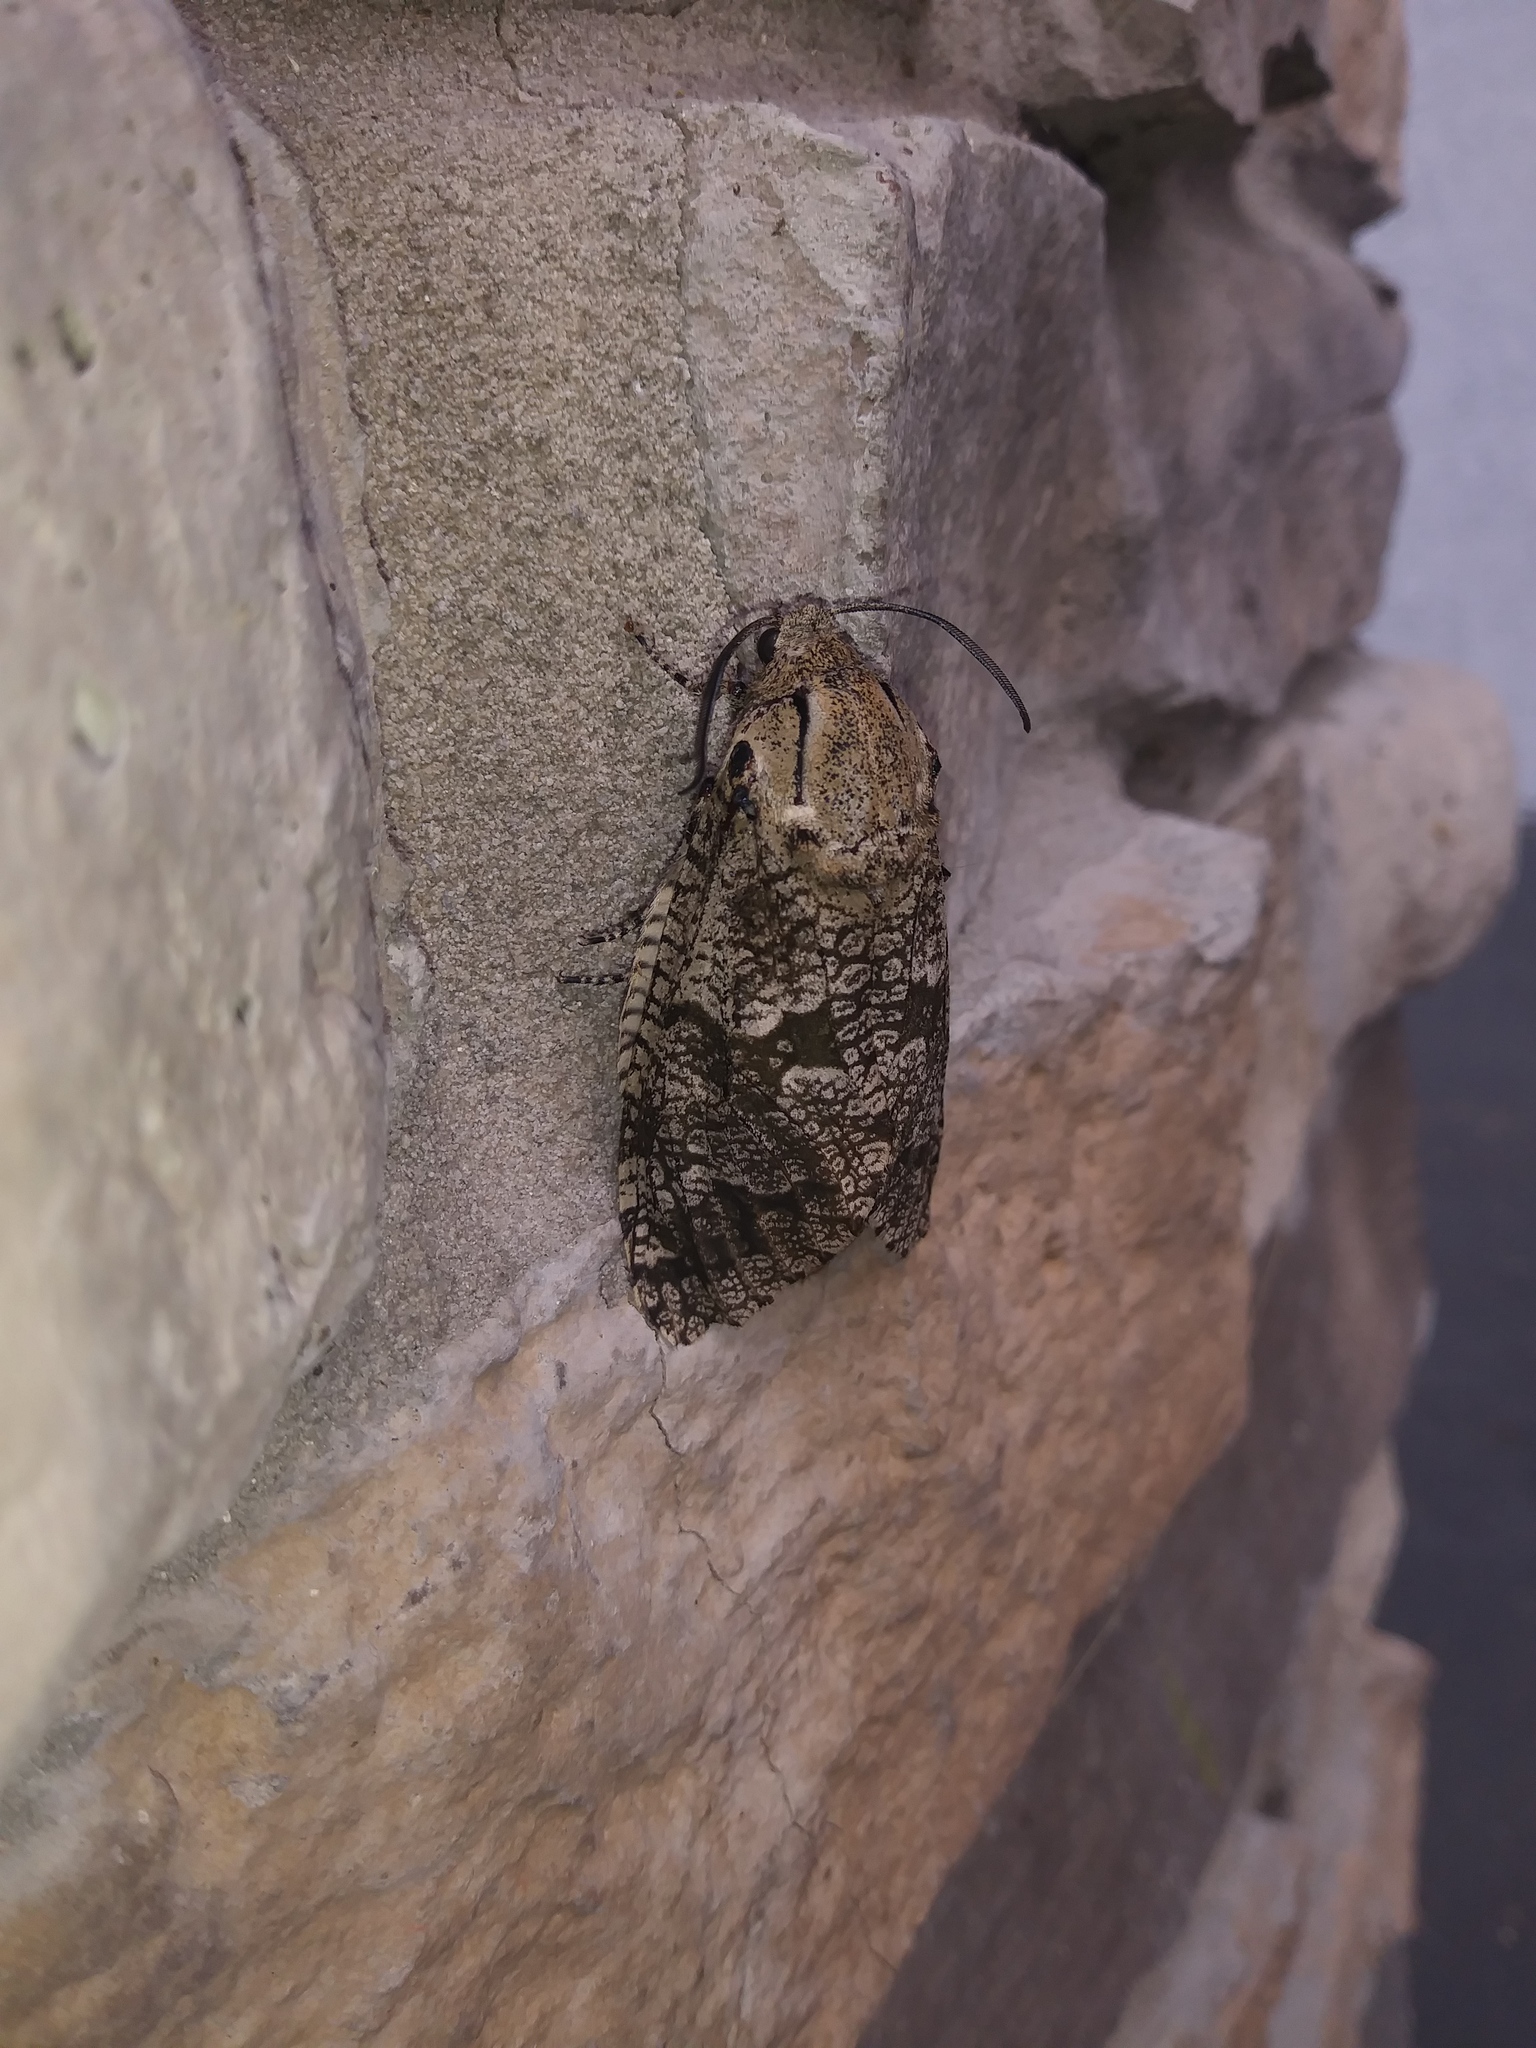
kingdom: Animalia
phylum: Arthropoda
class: Insecta
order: Lepidoptera
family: Cossidae
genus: Prionoxystus
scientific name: Prionoxystus robiniae
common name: Carpenterworm
